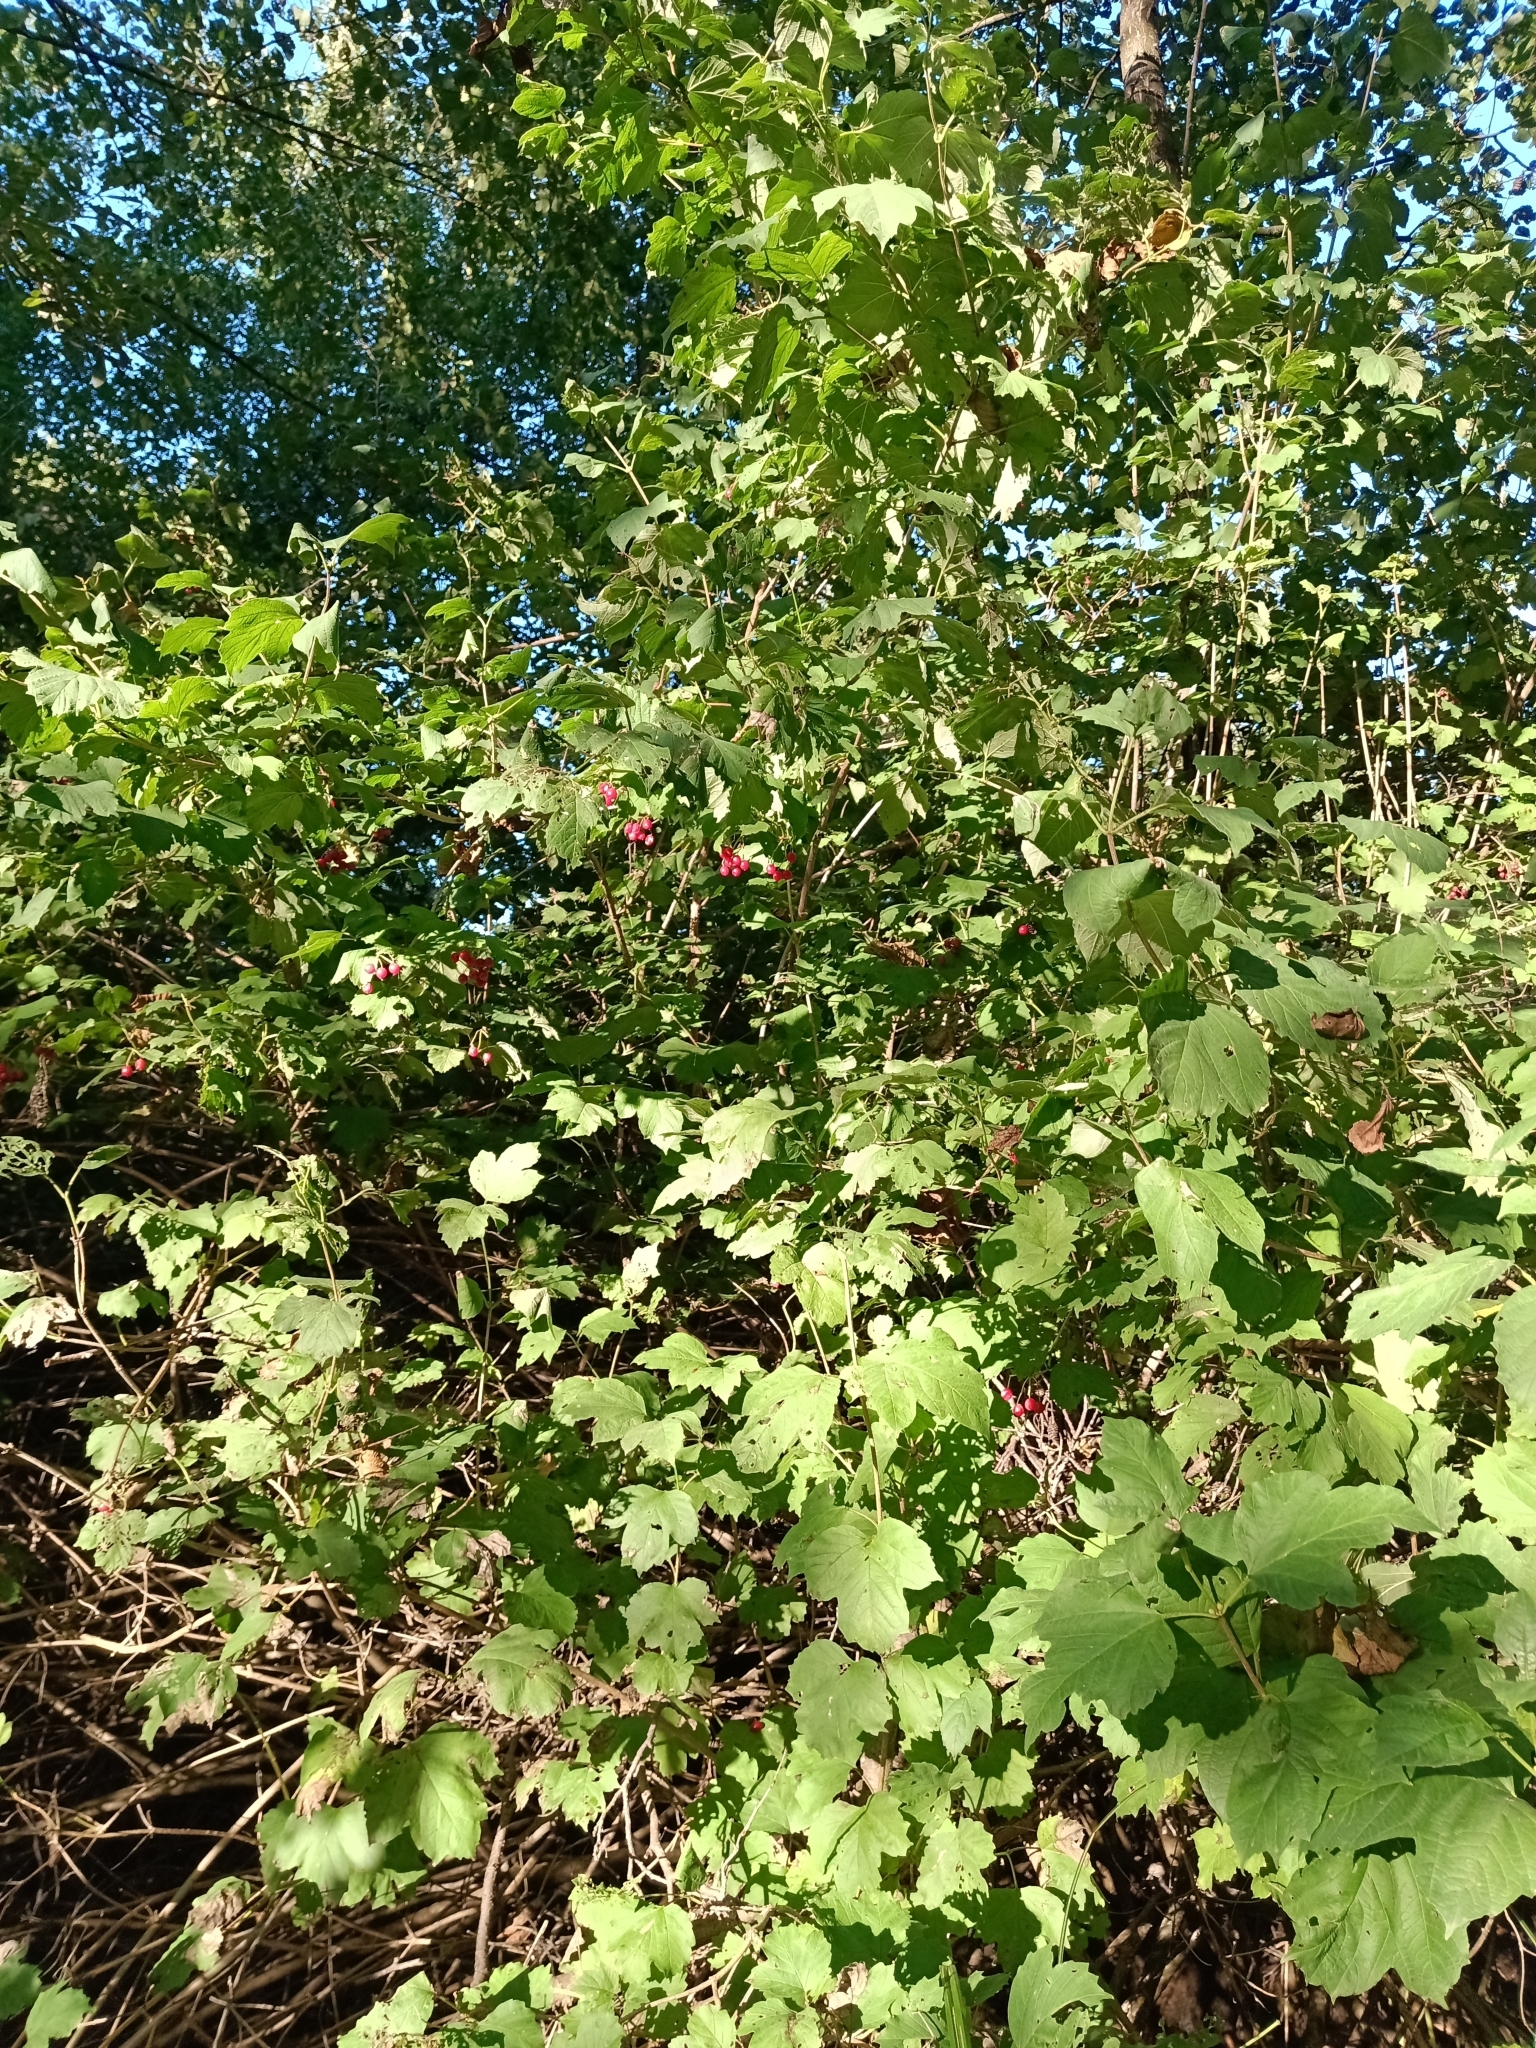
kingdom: Plantae
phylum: Tracheophyta
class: Magnoliopsida
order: Dipsacales
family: Viburnaceae
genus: Viburnum
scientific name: Viburnum opulus
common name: Guelder-rose
